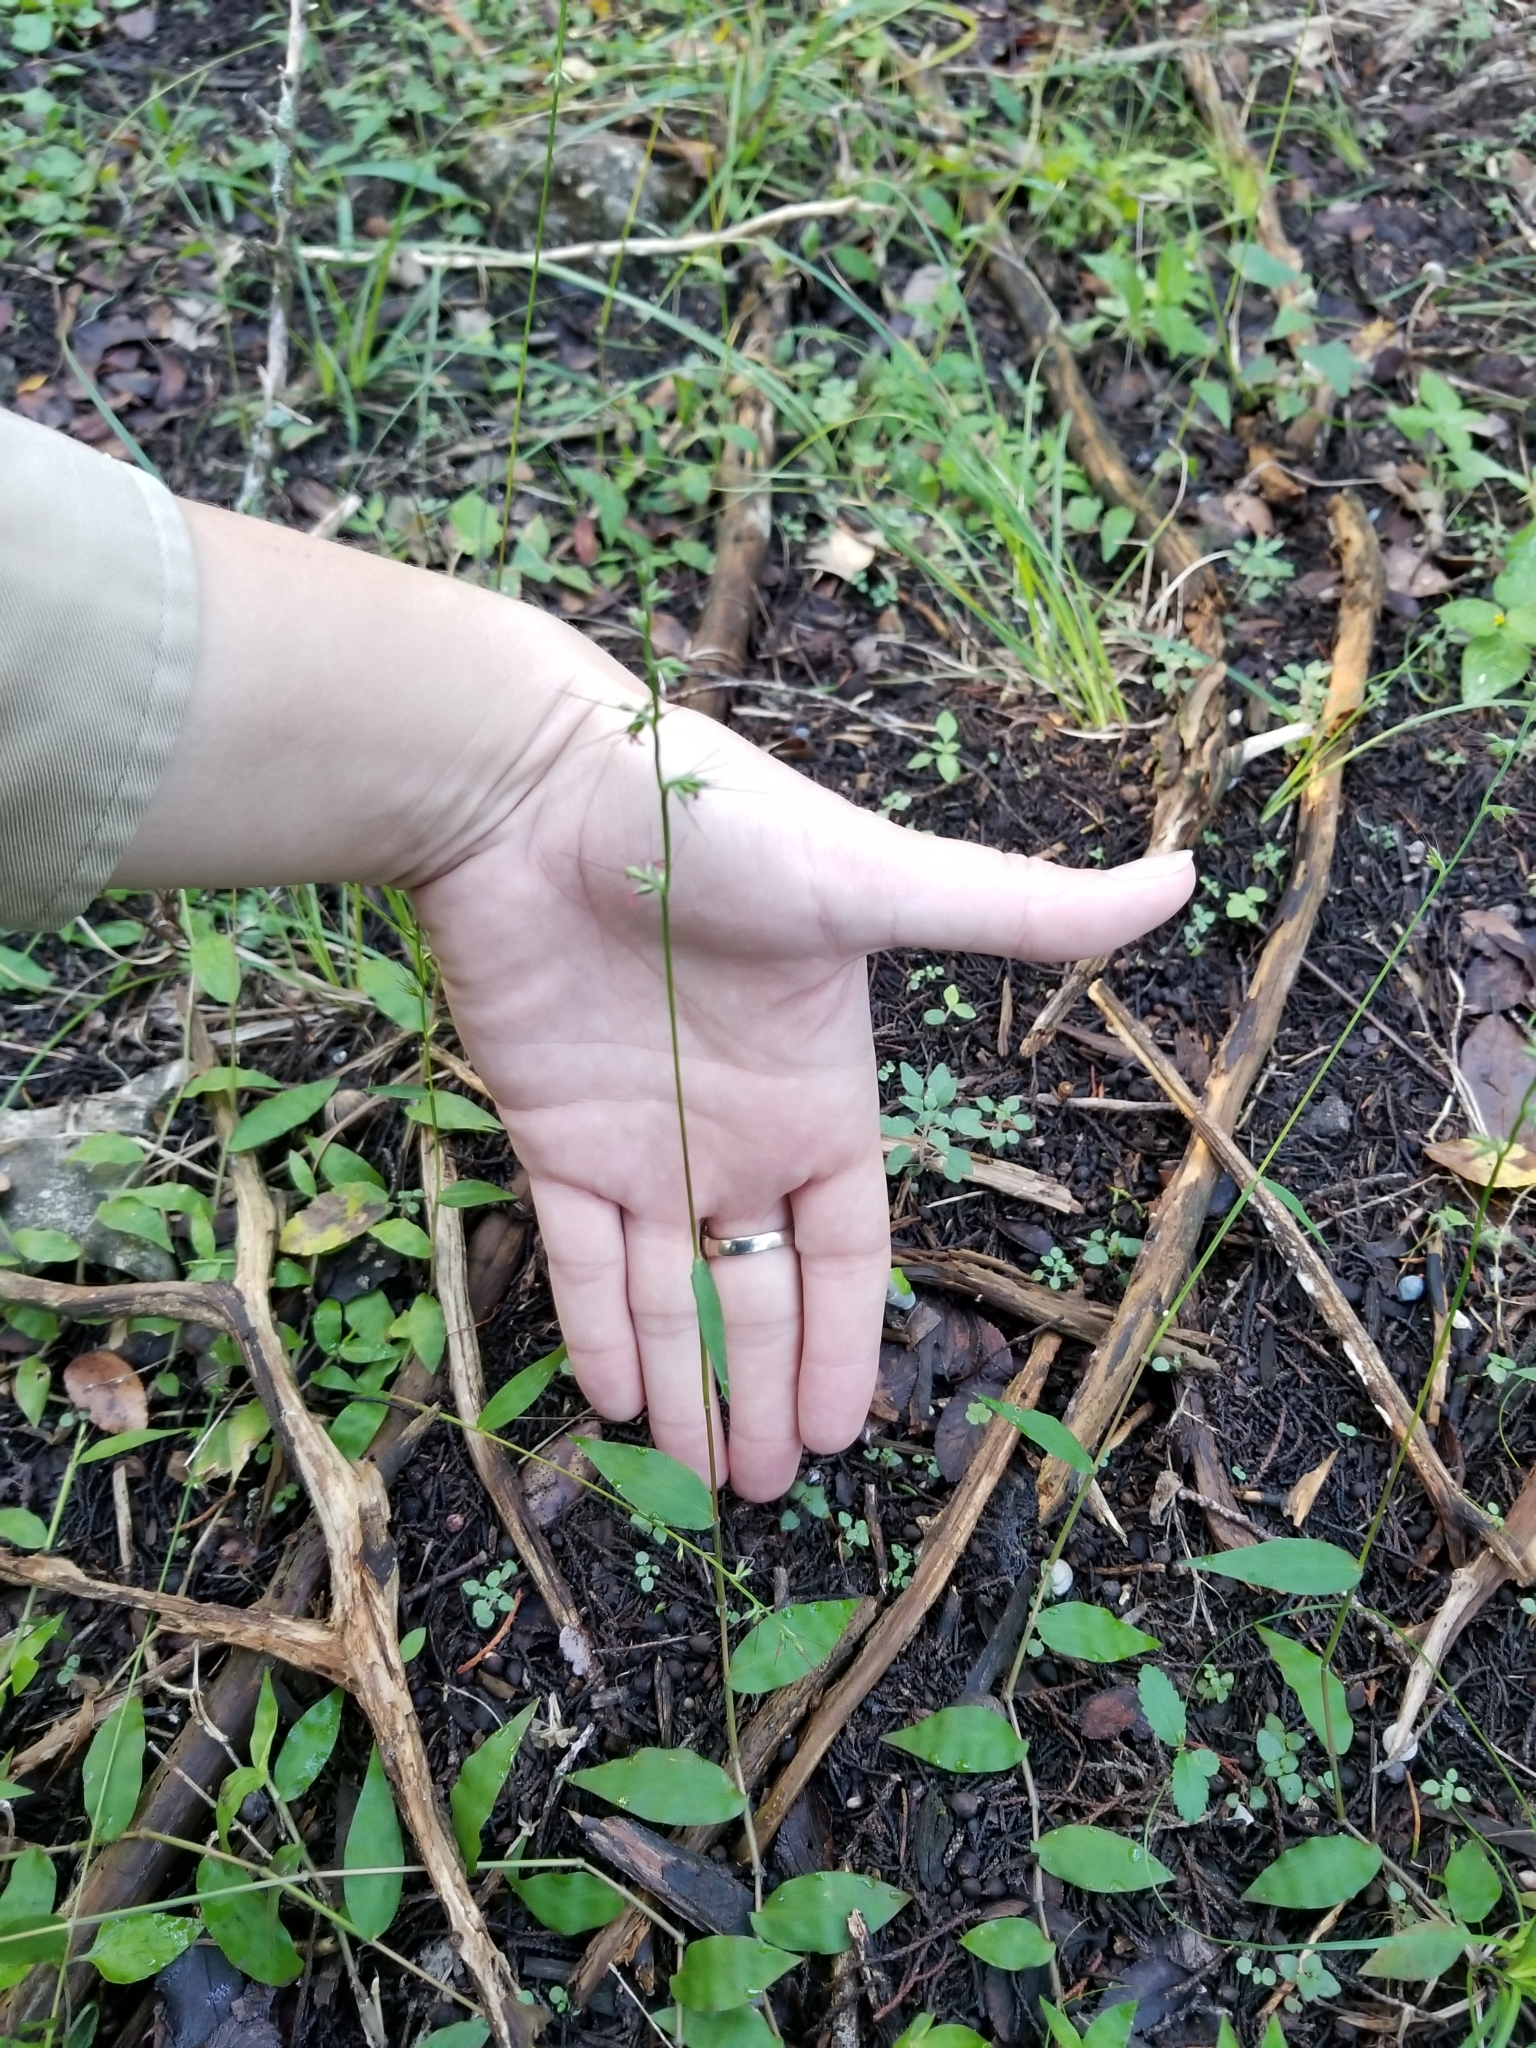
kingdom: Plantae
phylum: Tracheophyta
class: Liliopsida
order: Poales
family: Poaceae
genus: Oplismenus
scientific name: Oplismenus hirtellus
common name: Basketgrass
